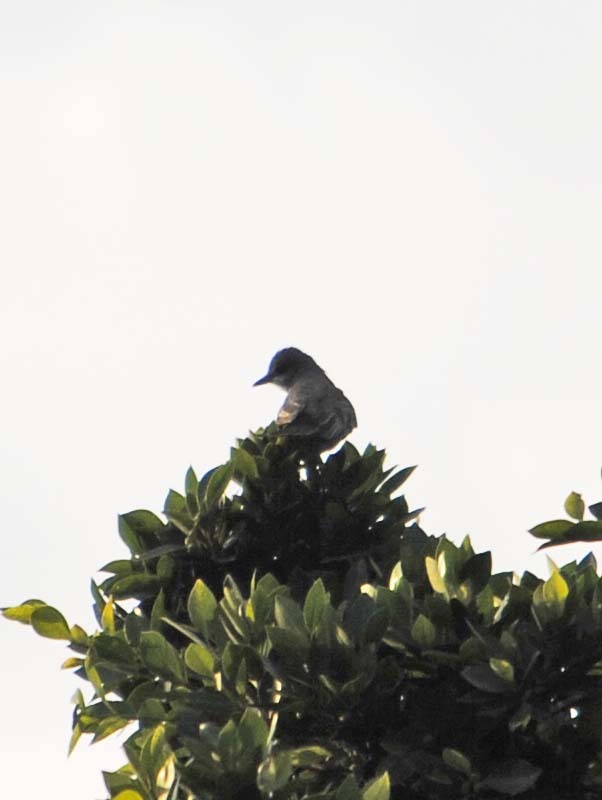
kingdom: Animalia
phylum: Chordata
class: Aves
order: Passeriformes
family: Tyrannidae
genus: Tyrannus
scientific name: Tyrannus vociferans
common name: Cassin's kingbird
